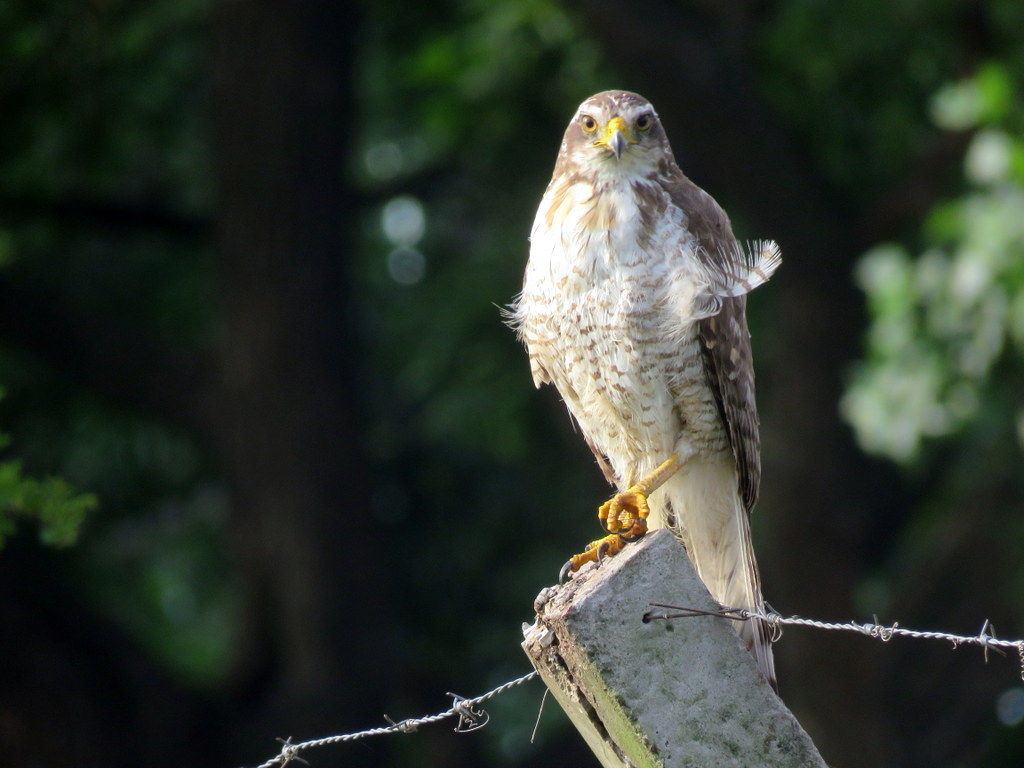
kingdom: Animalia
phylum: Chordata
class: Aves
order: Accipitriformes
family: Accipitridae
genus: Rupornis
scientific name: Rupornis magnirostris
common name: Roadside hawk
